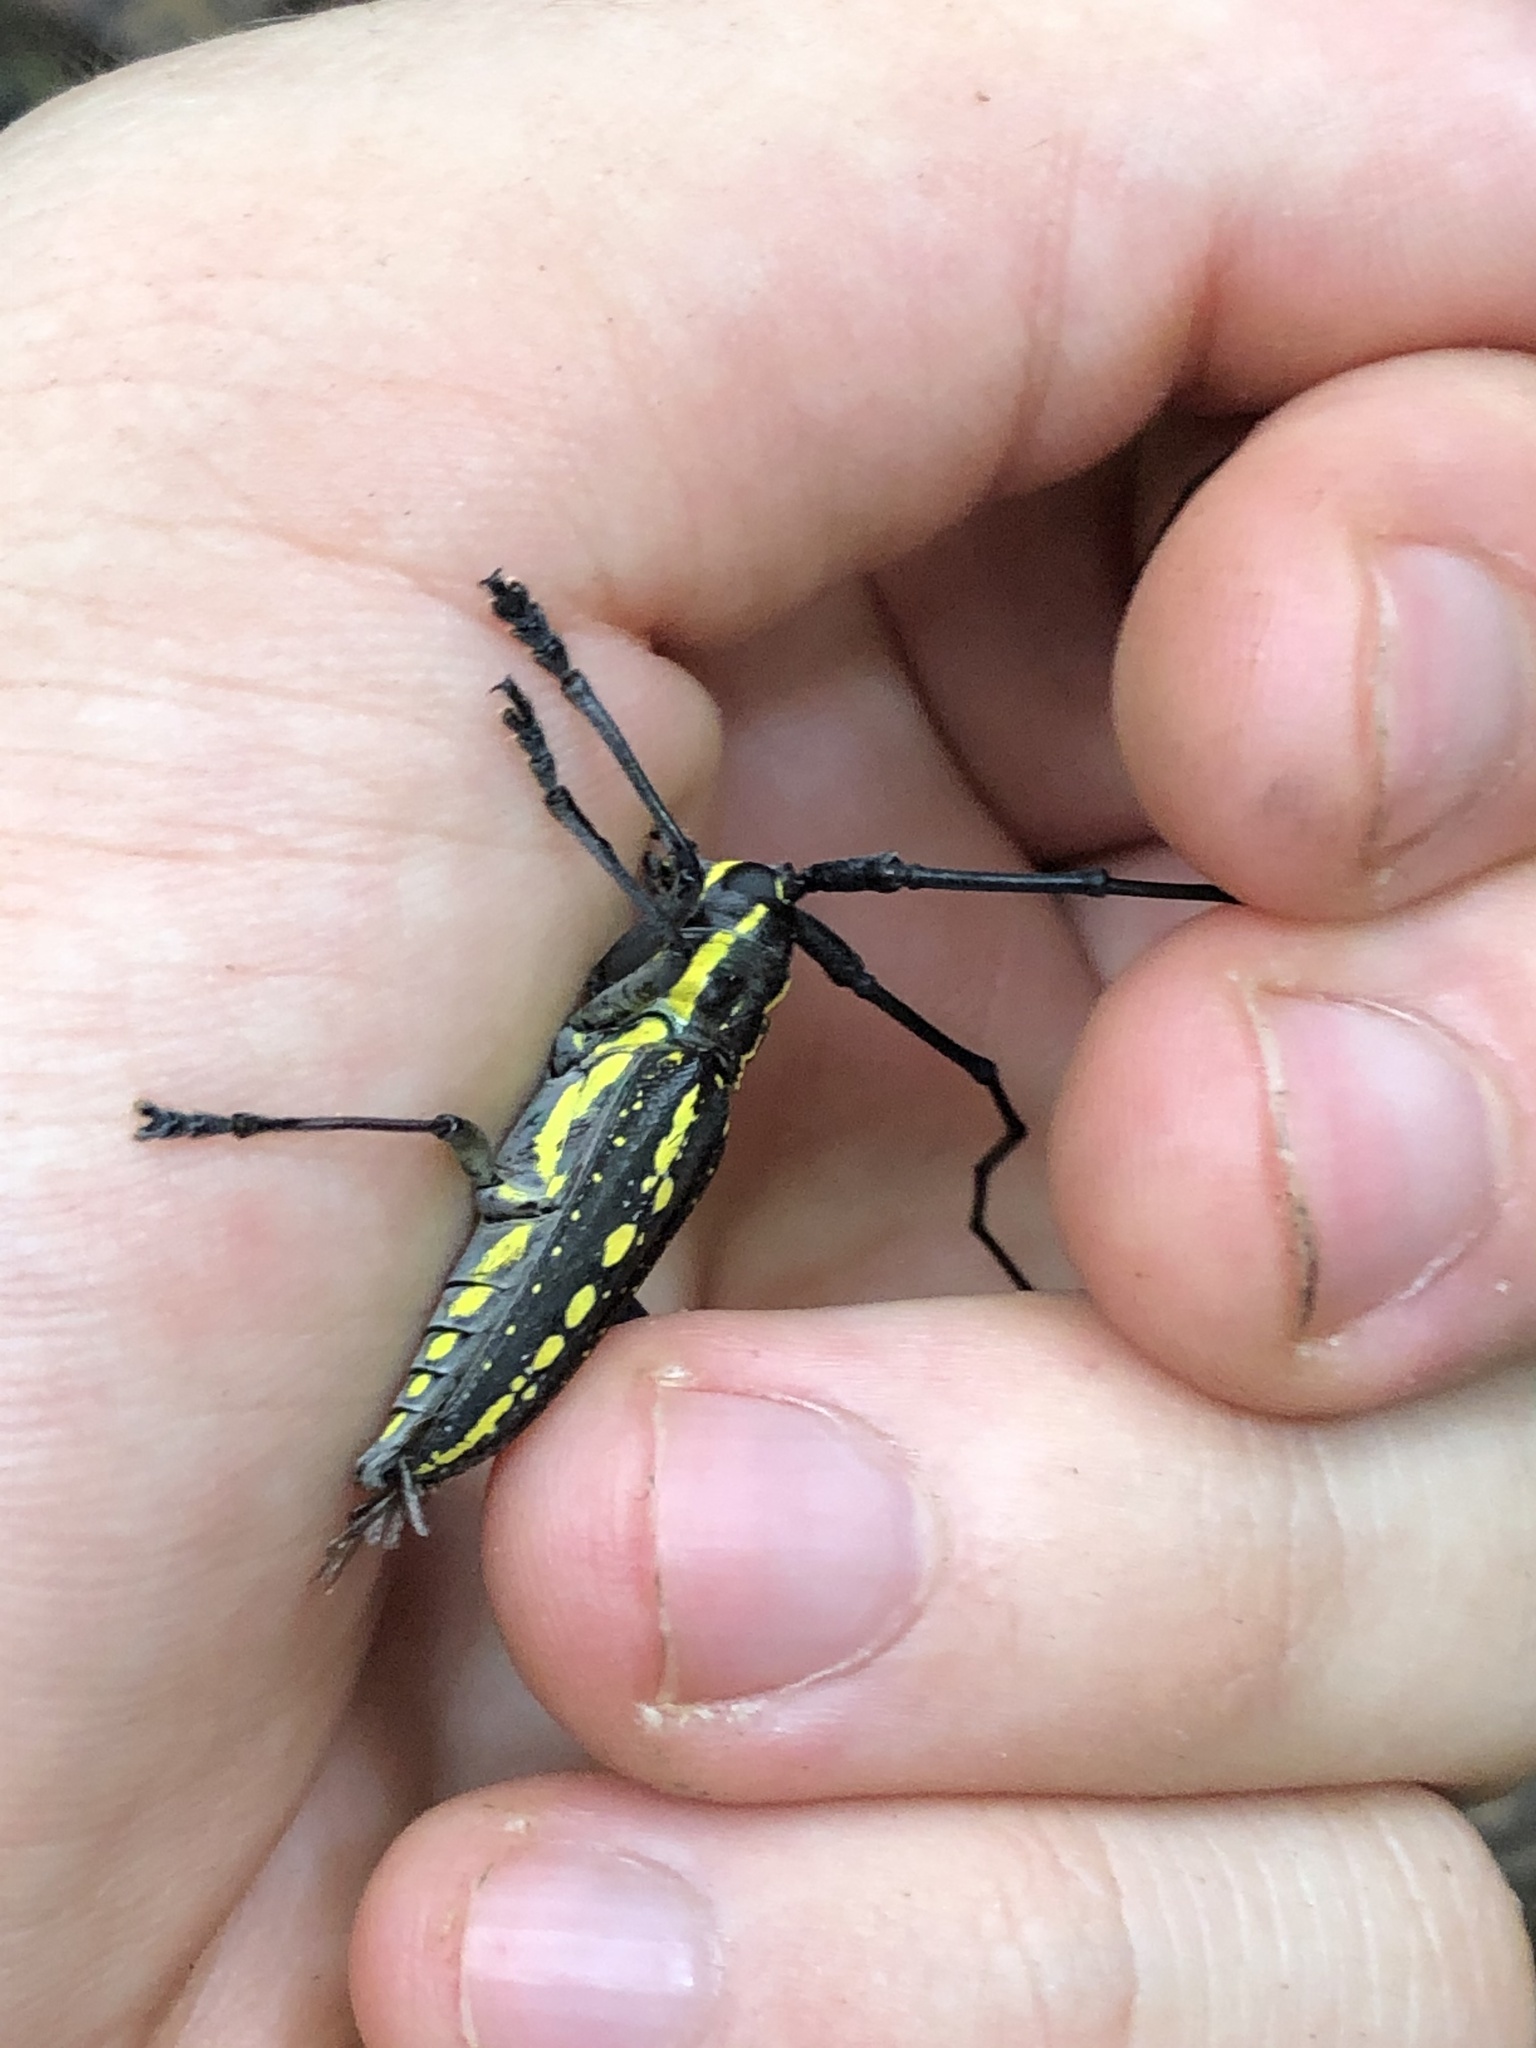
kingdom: Animalia
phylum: Arthropoda
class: Insecta
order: Coleoptera
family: Cerambycidae
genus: Taeniotes
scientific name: Taeniotes orbignyi
